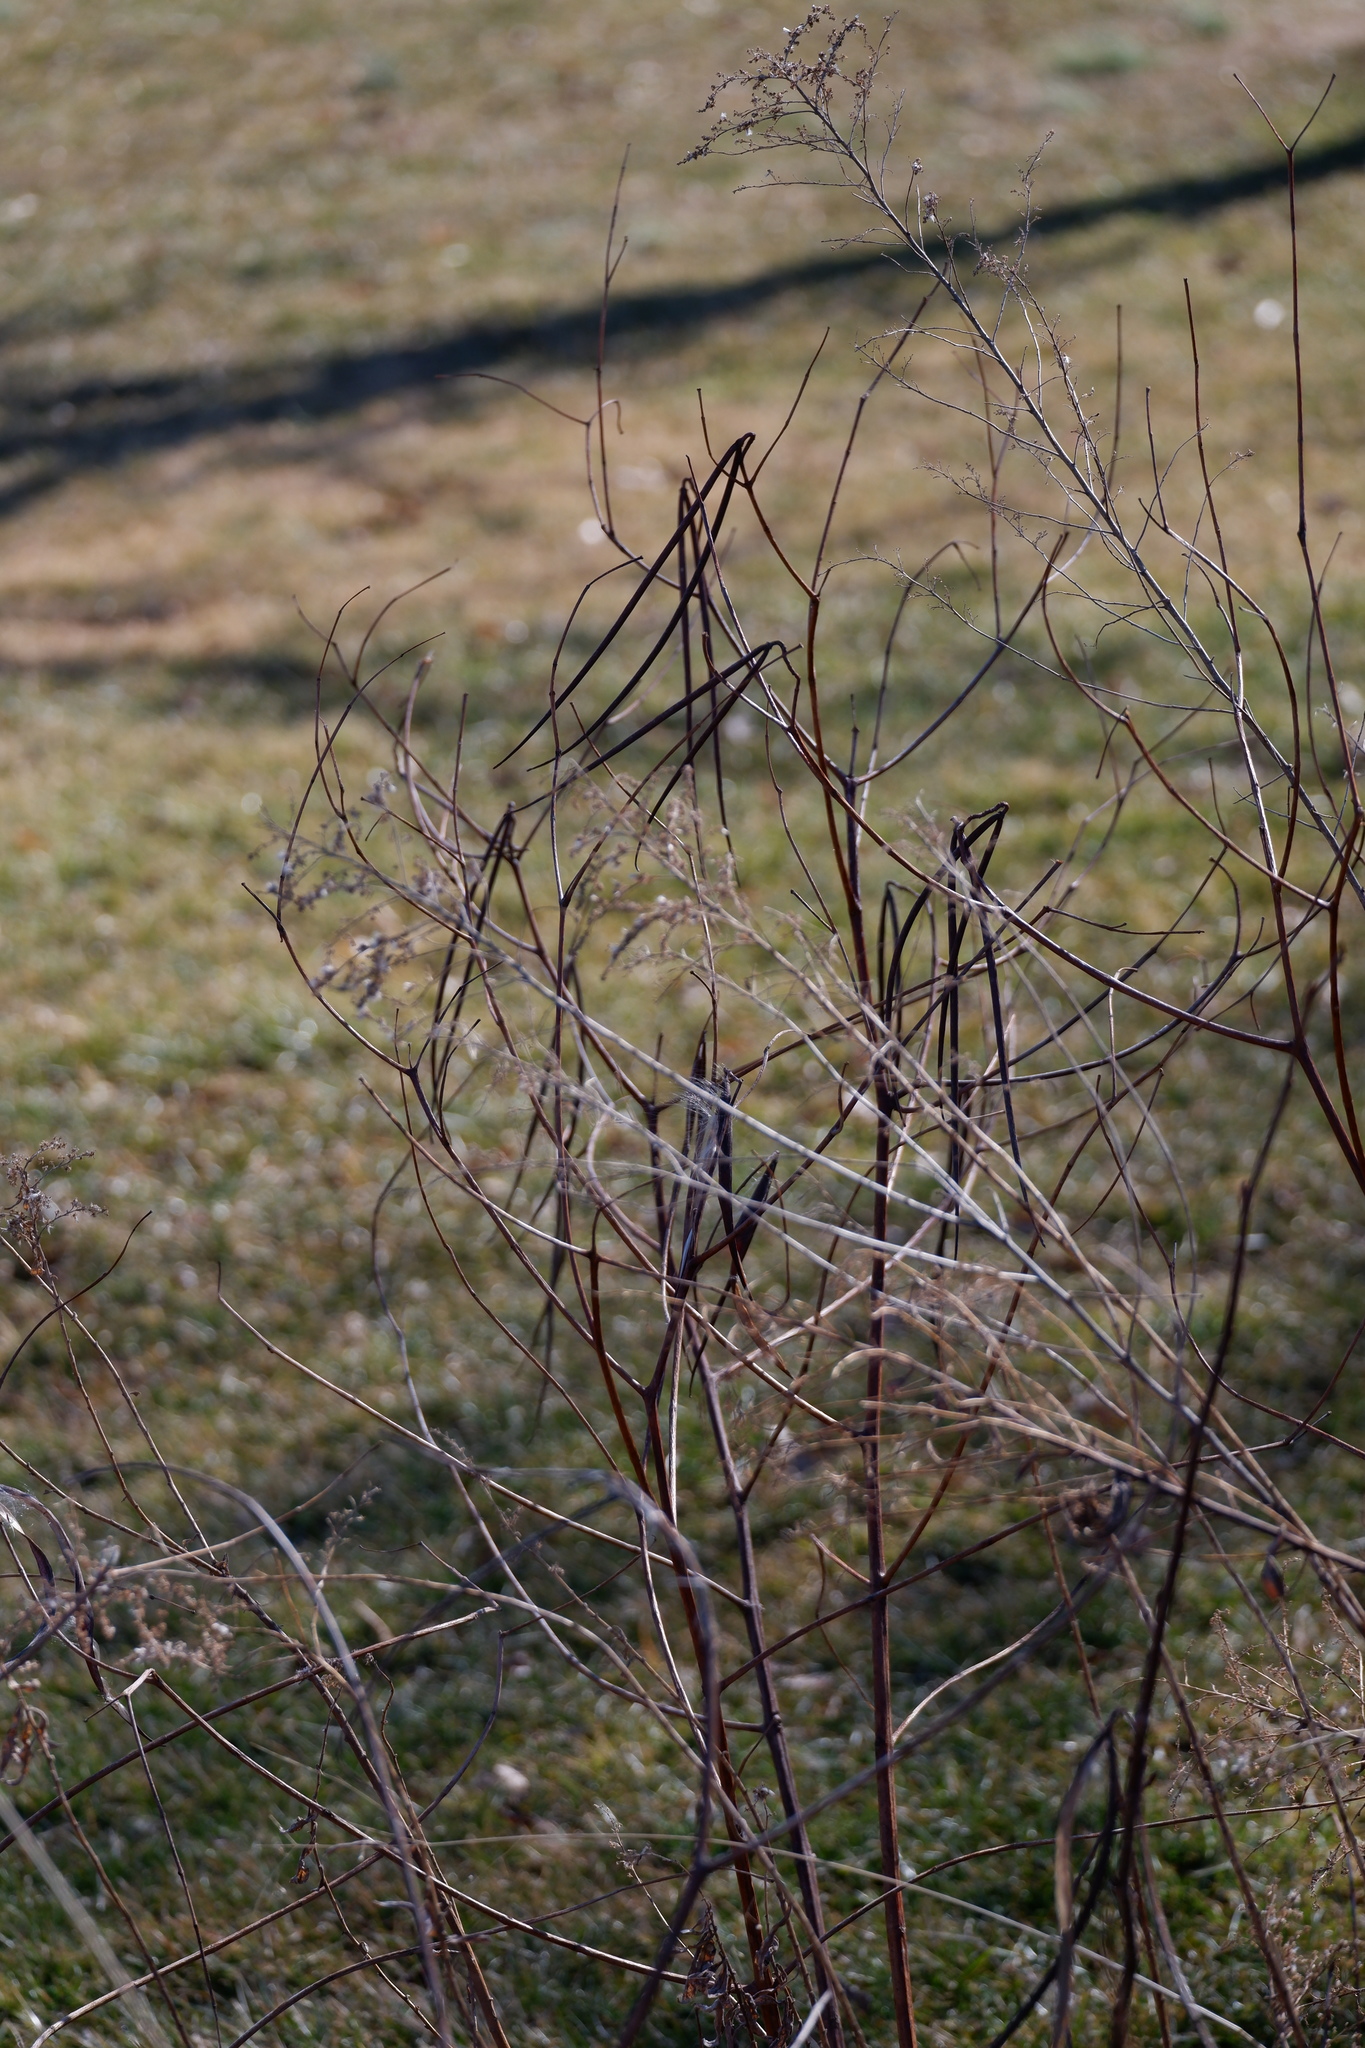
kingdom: Plantae
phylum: Tracheophyta
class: Magnoliopsida
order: Gentianales
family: Apocynaceae
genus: Apocynum
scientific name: Apocynum cannabinum
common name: Hemp dogbane
